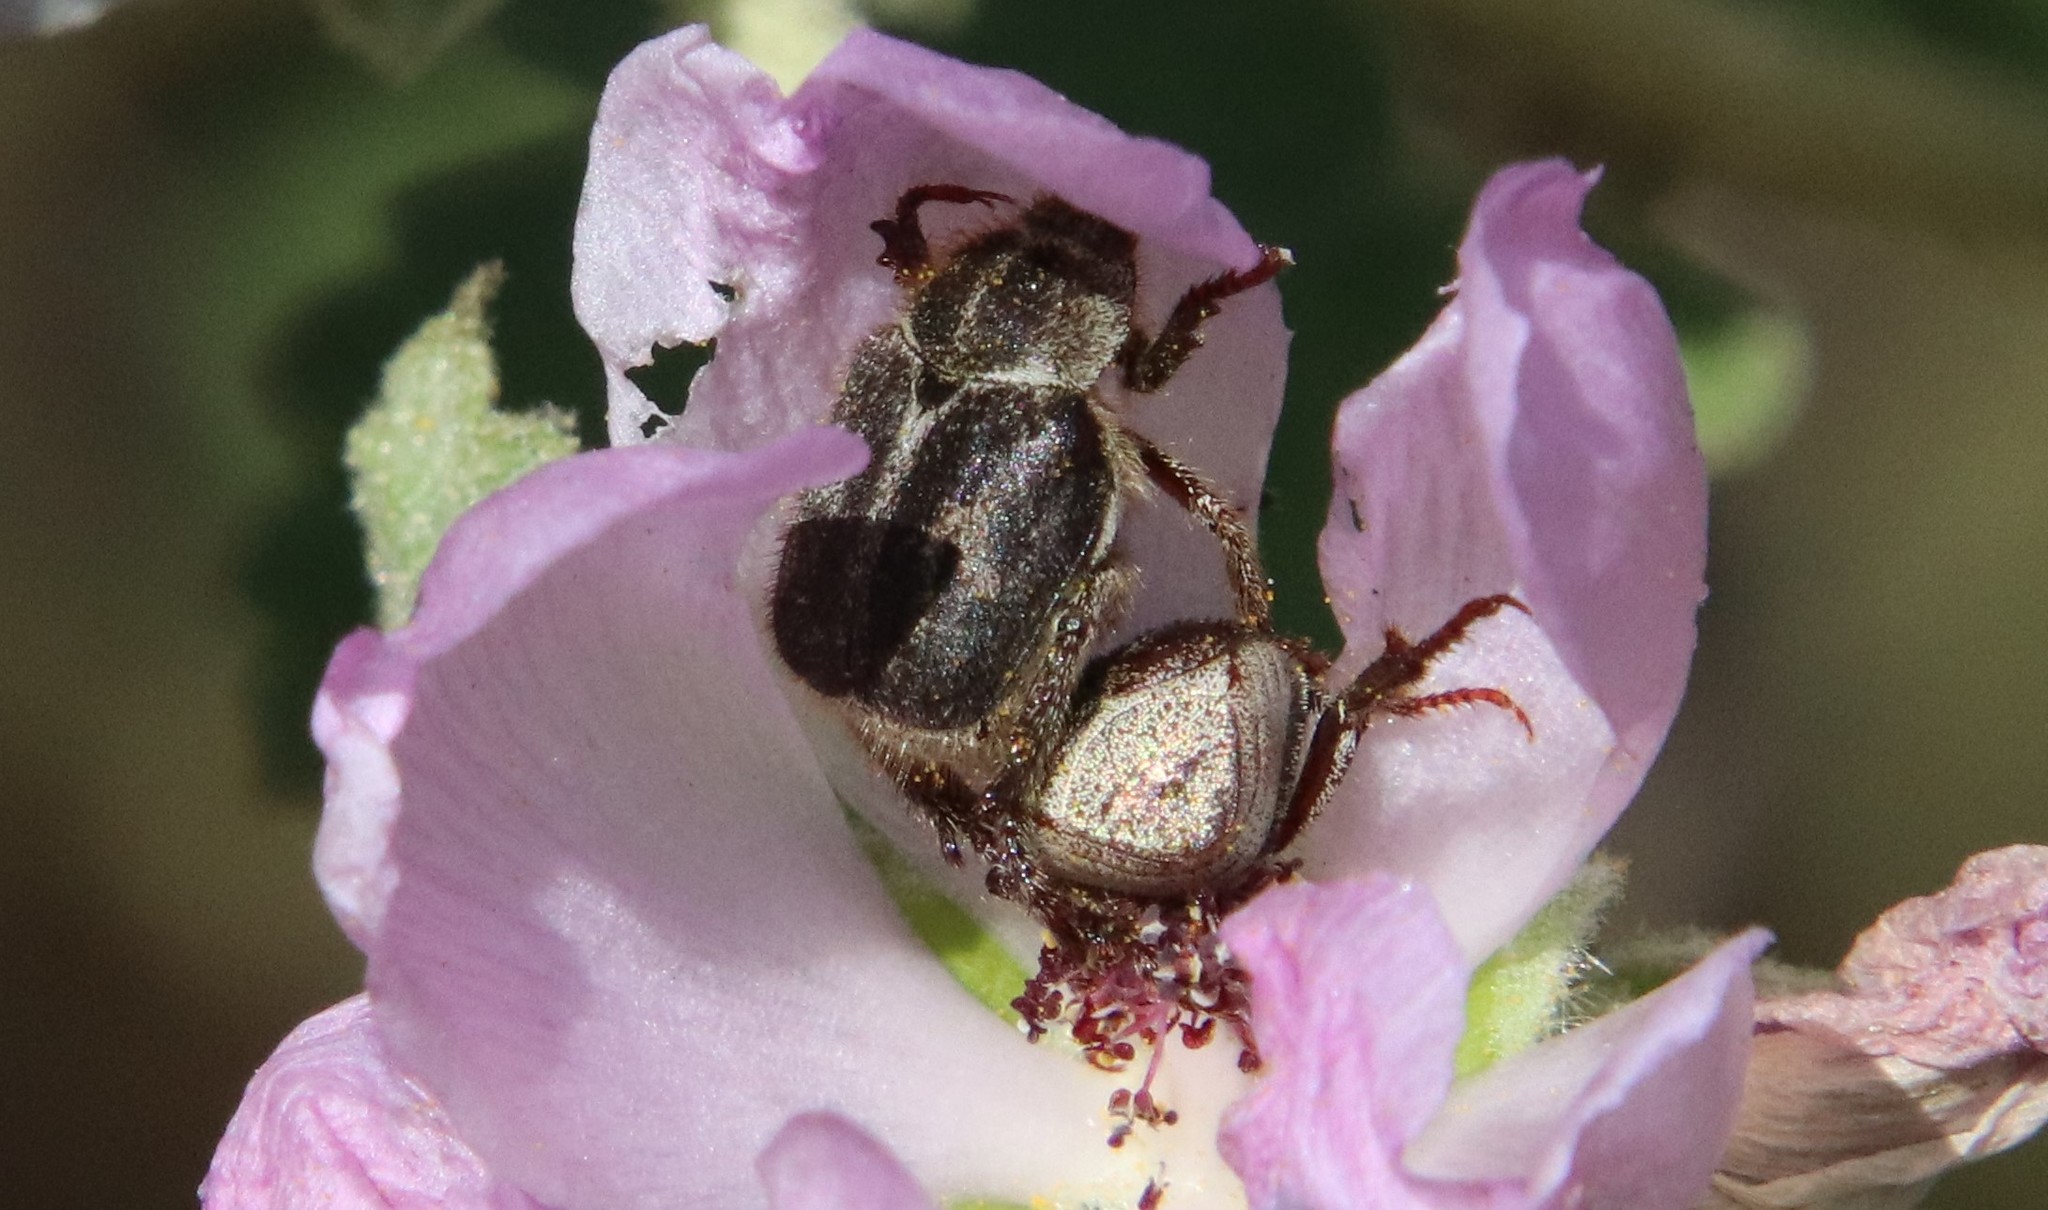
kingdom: Animalia
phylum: Arthropoda
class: Insecta
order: Coleoptera
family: Scarabaeidae
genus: Hoplia
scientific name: Hoplia callipyge
